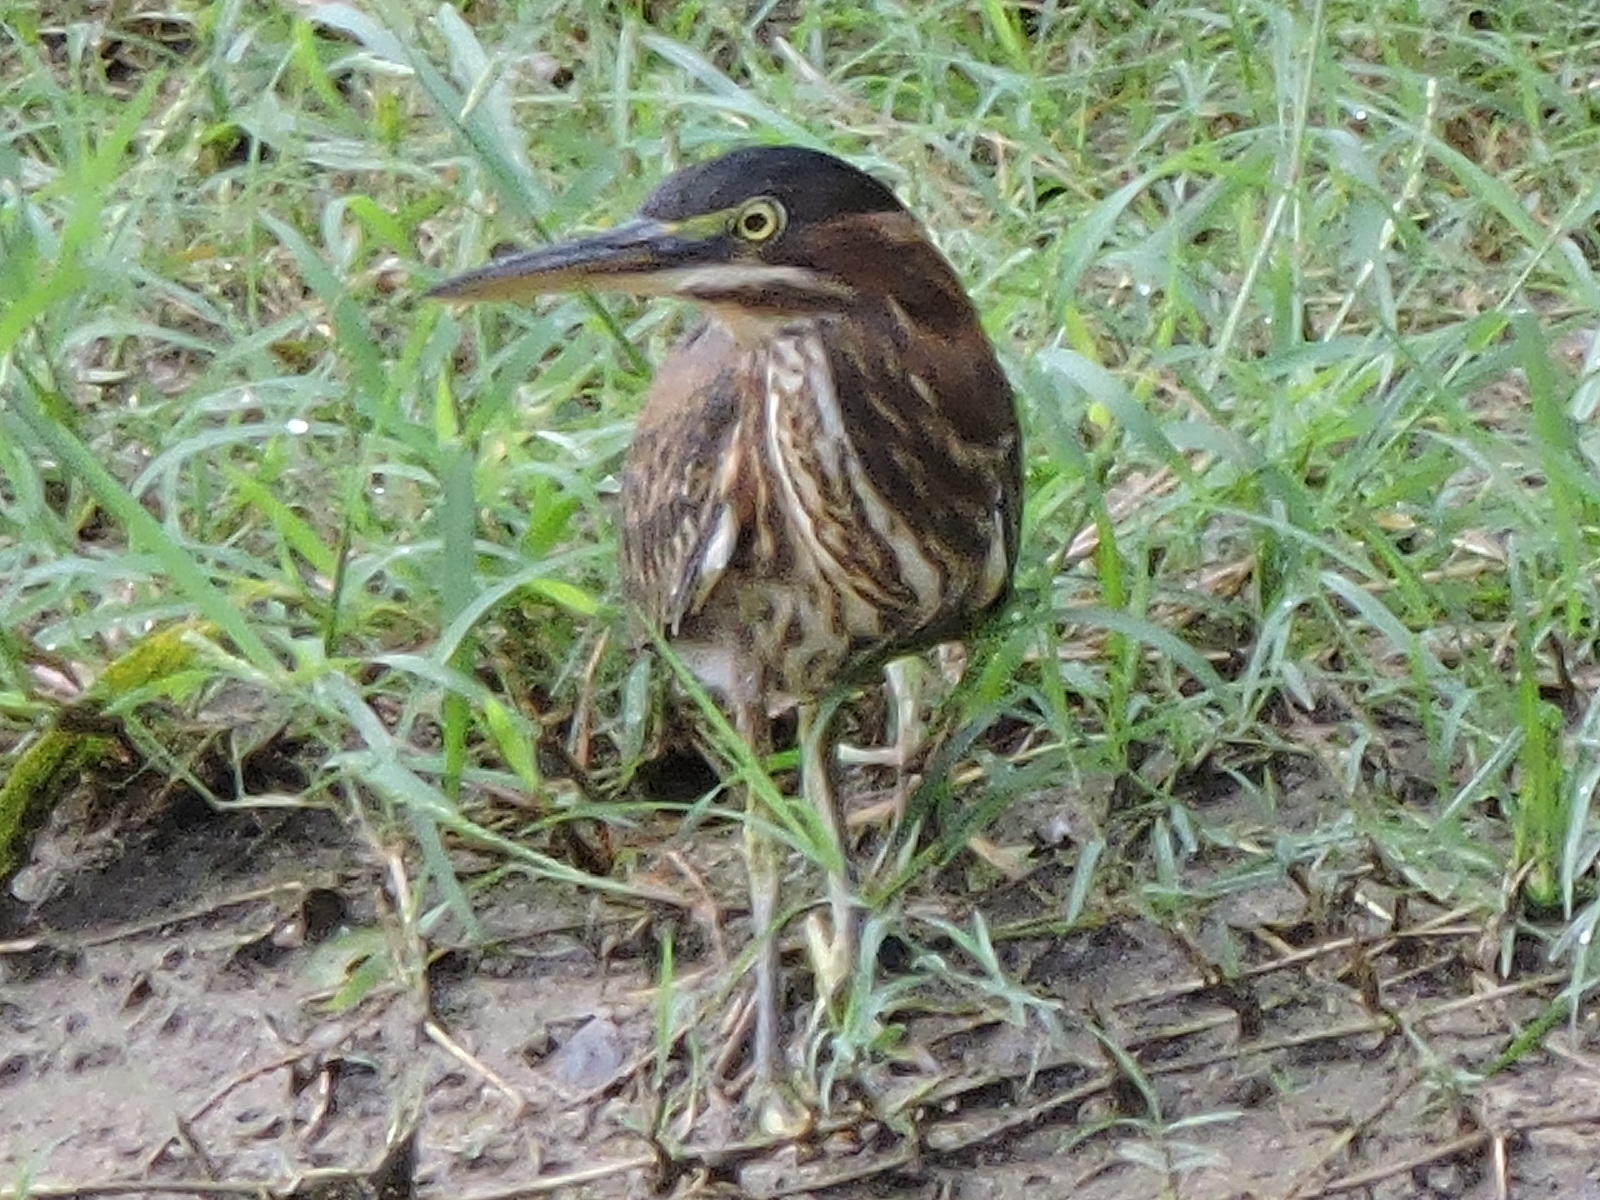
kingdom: Animalia
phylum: Chordata
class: Aves
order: Pelecaniformes
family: Ardeidae
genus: Butorides
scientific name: Butorides virescens
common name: Green heron
